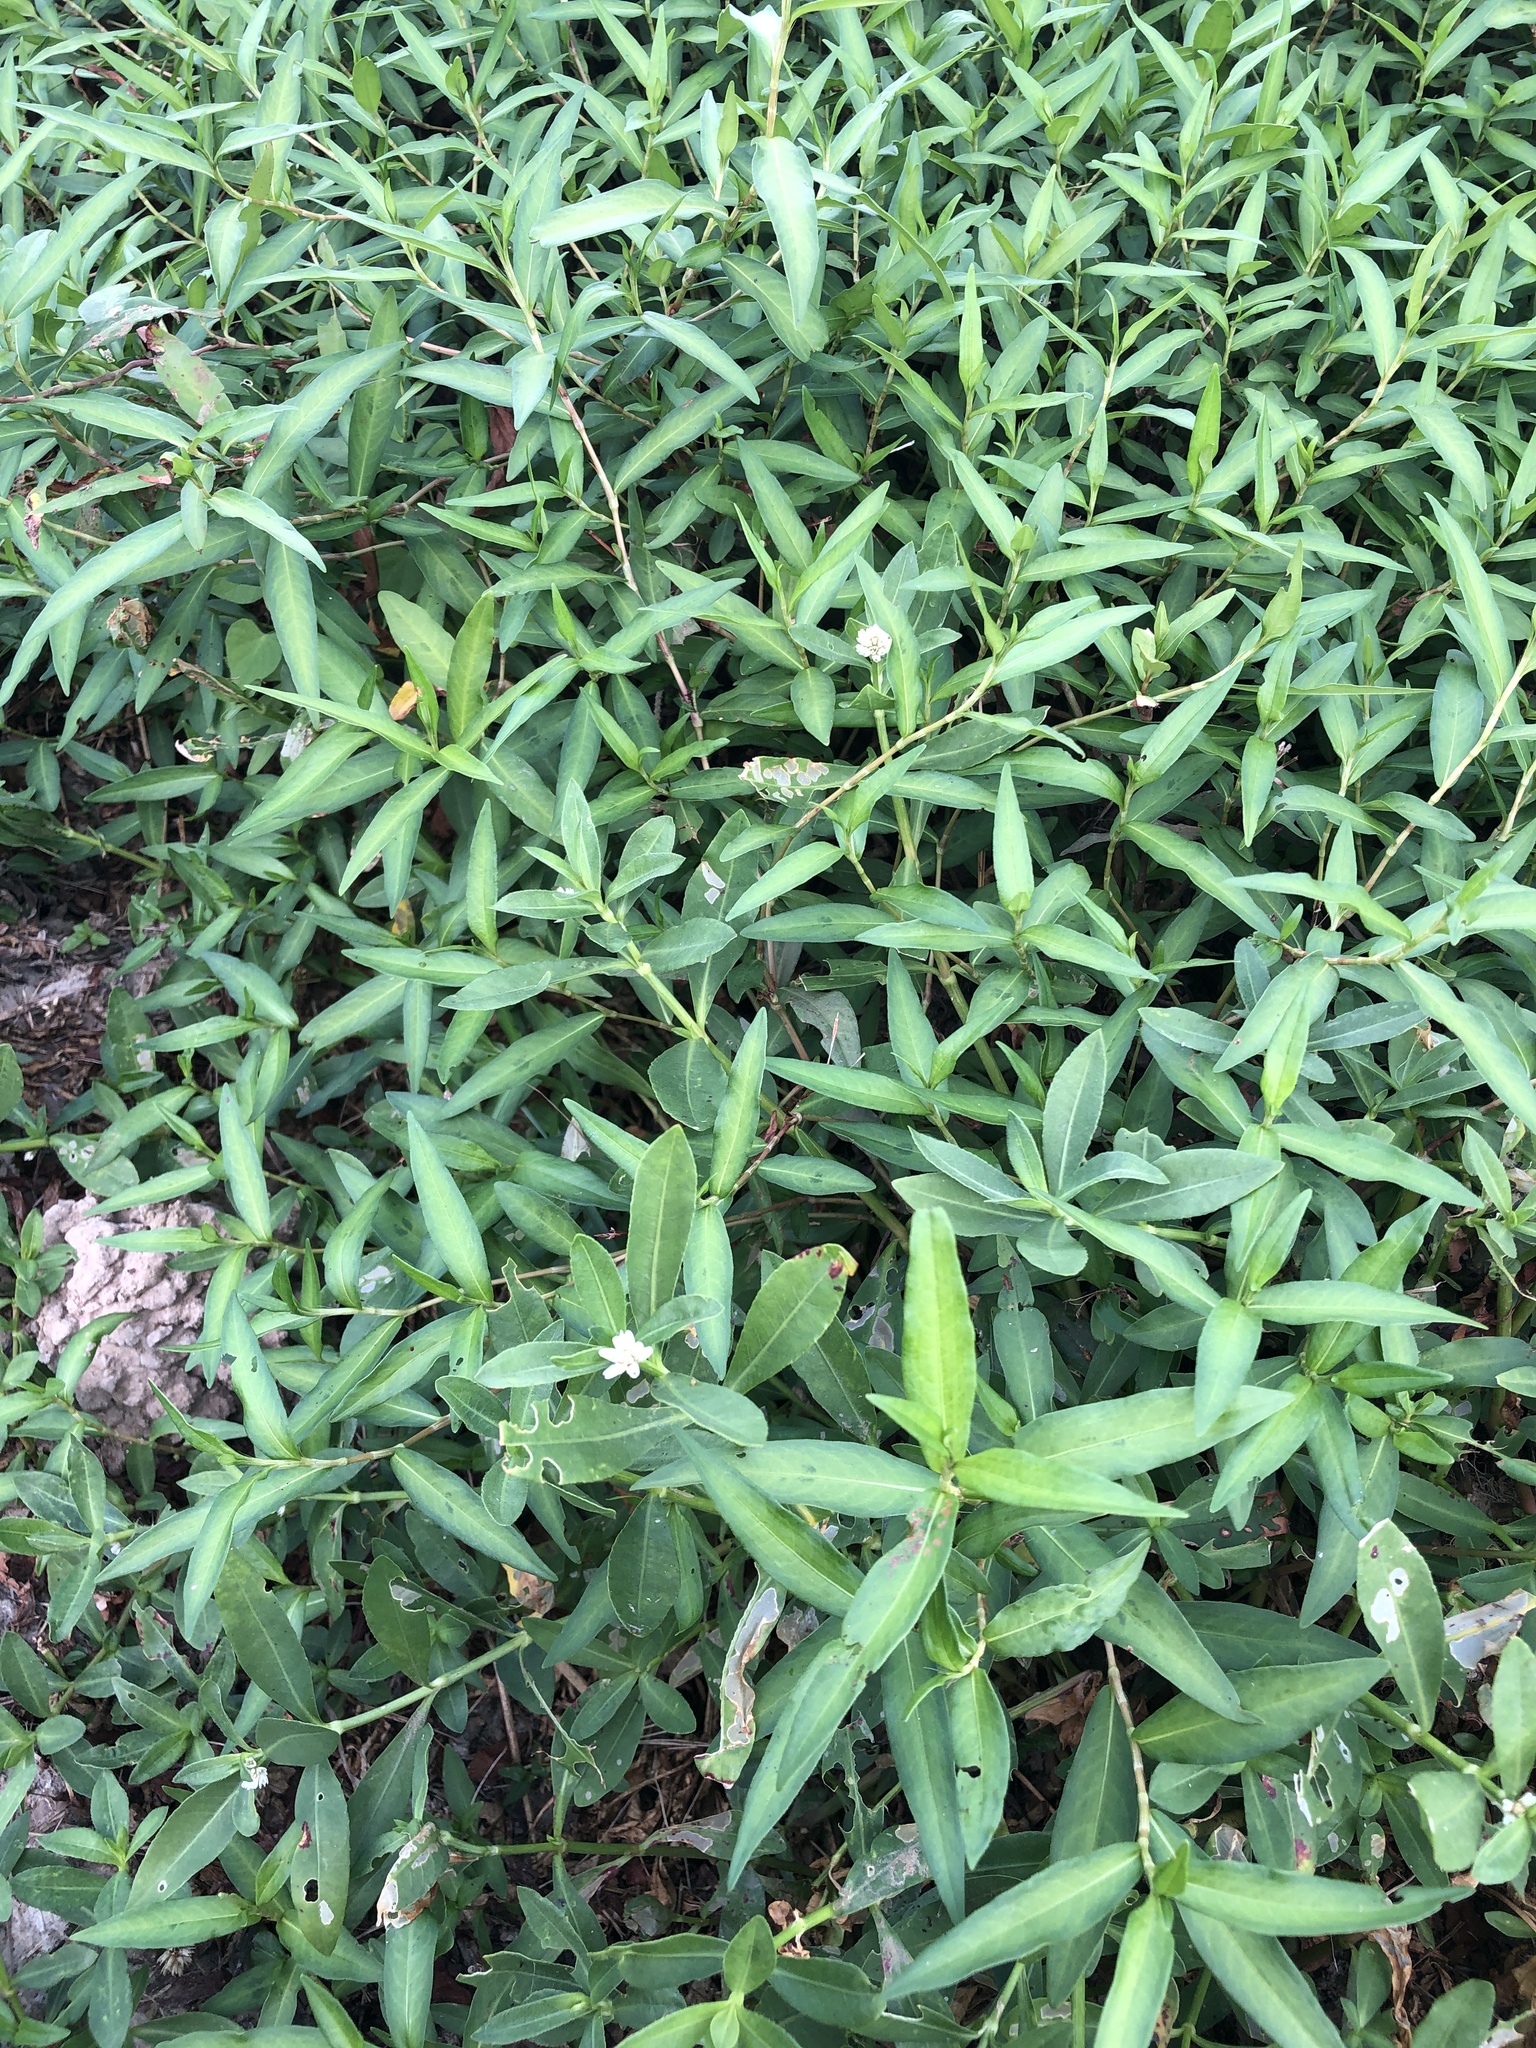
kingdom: Plantae
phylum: Tracheophyta
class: Magnoliopsida
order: Caryophyllales
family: Amaranthaceae
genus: Alternanthera
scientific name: Alternanthera philoxeroides
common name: Alligatorweed
